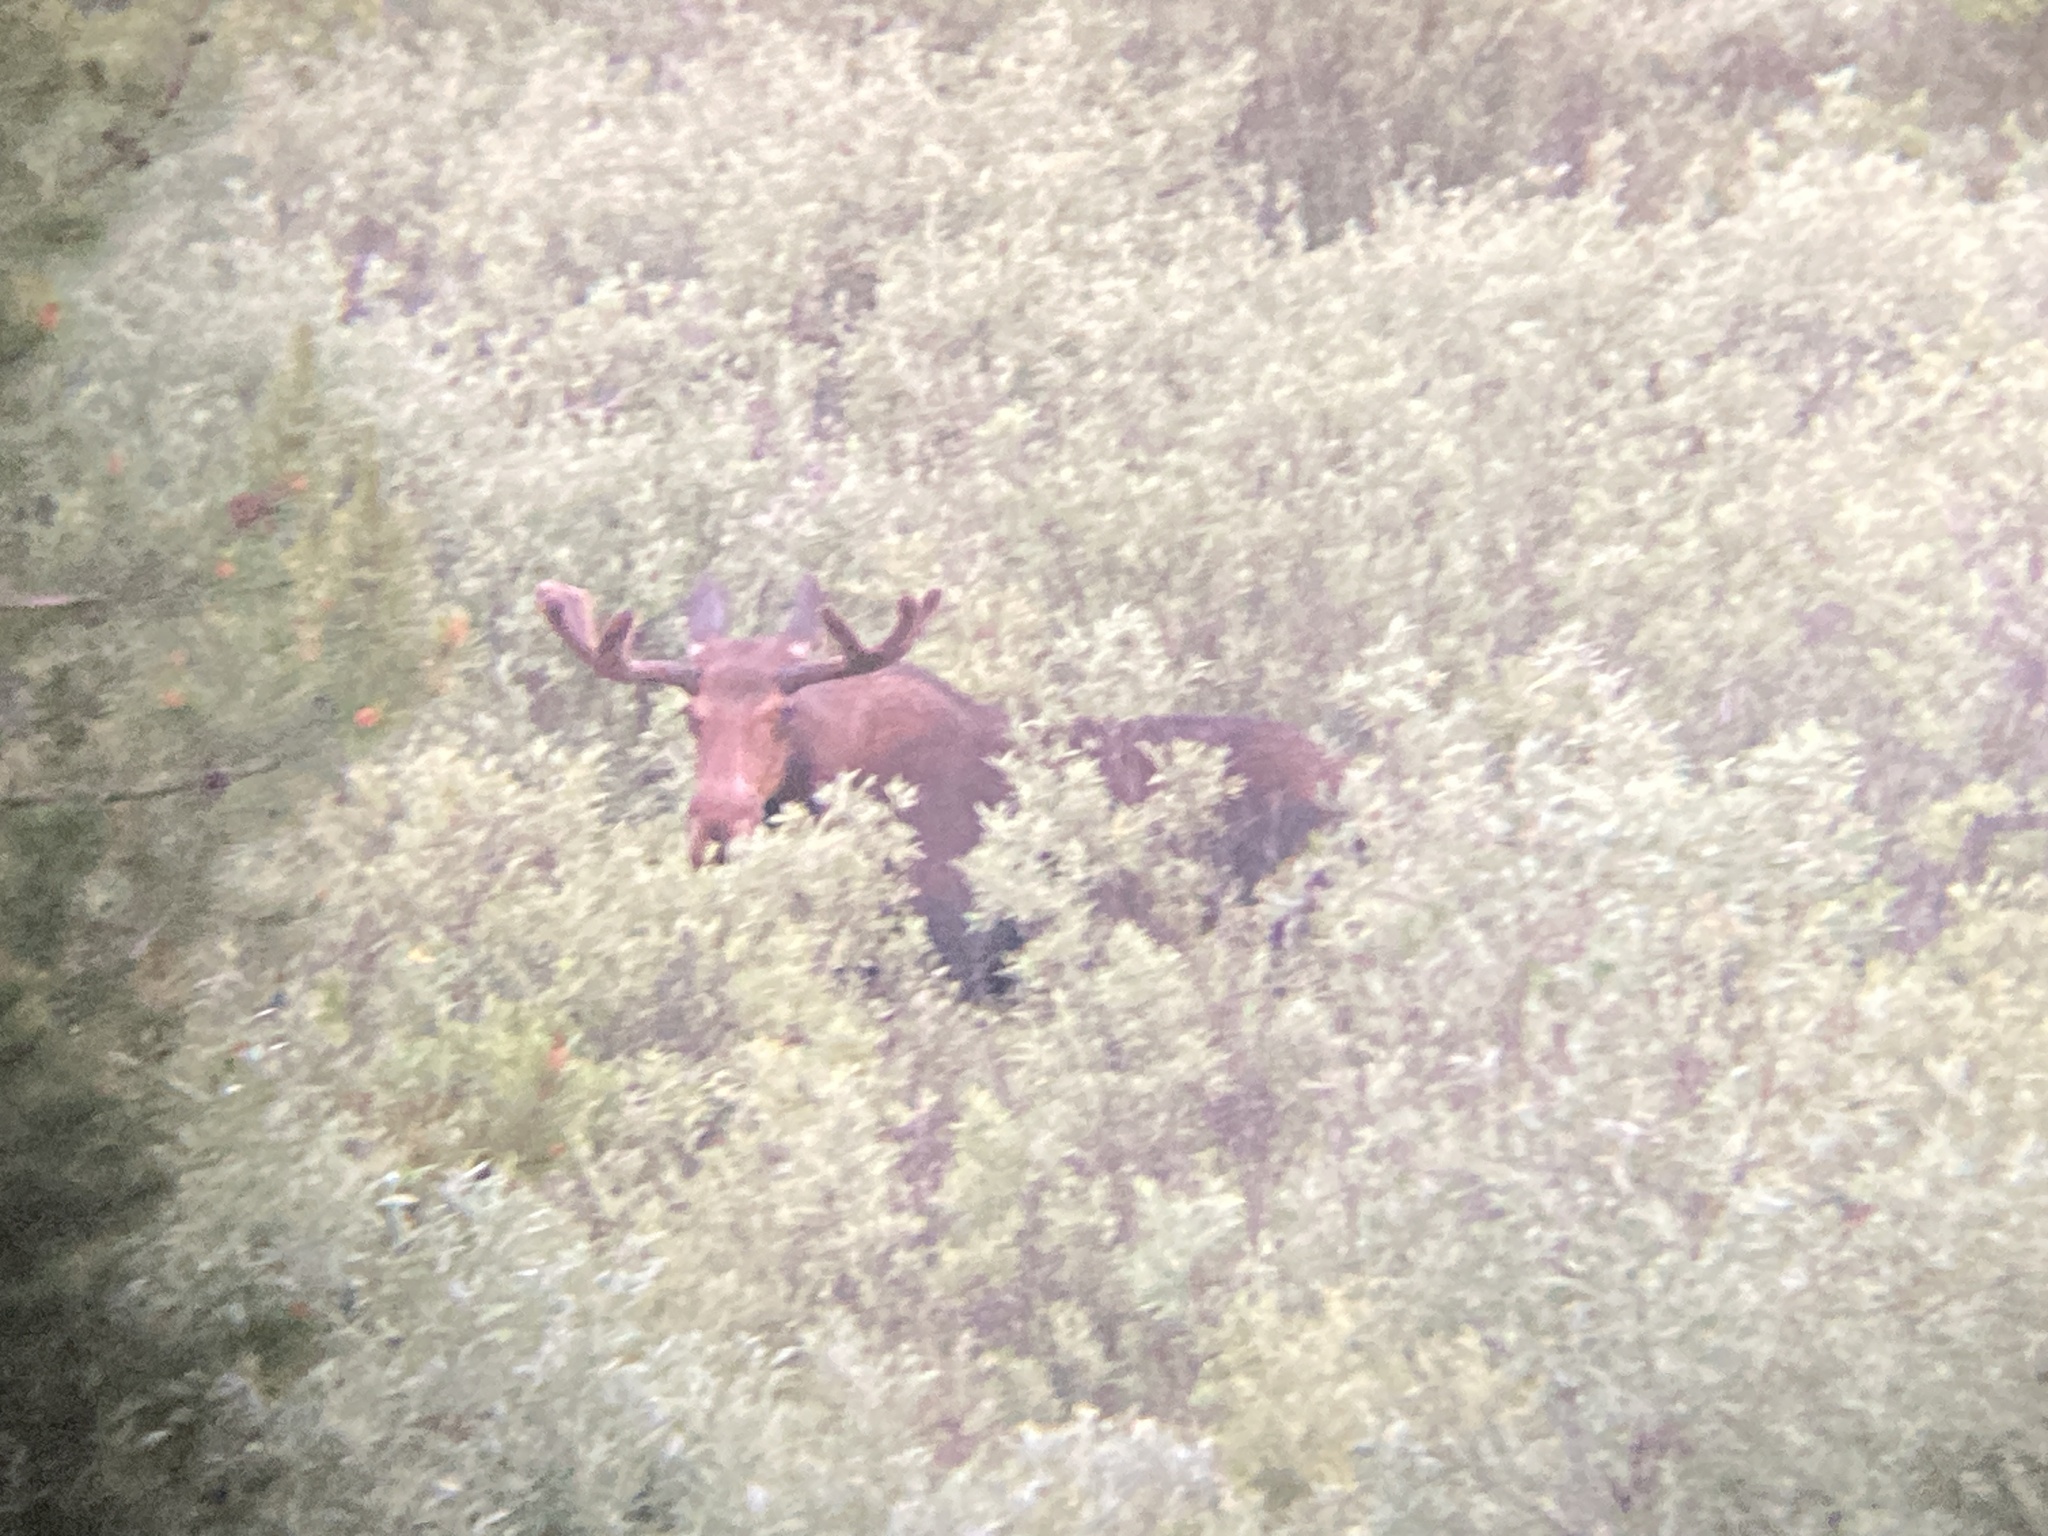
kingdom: Animalia
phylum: Chordata
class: Mammalia
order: Artiodactyla
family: Cervidae
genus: Alces
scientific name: Alces alces
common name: Moose
